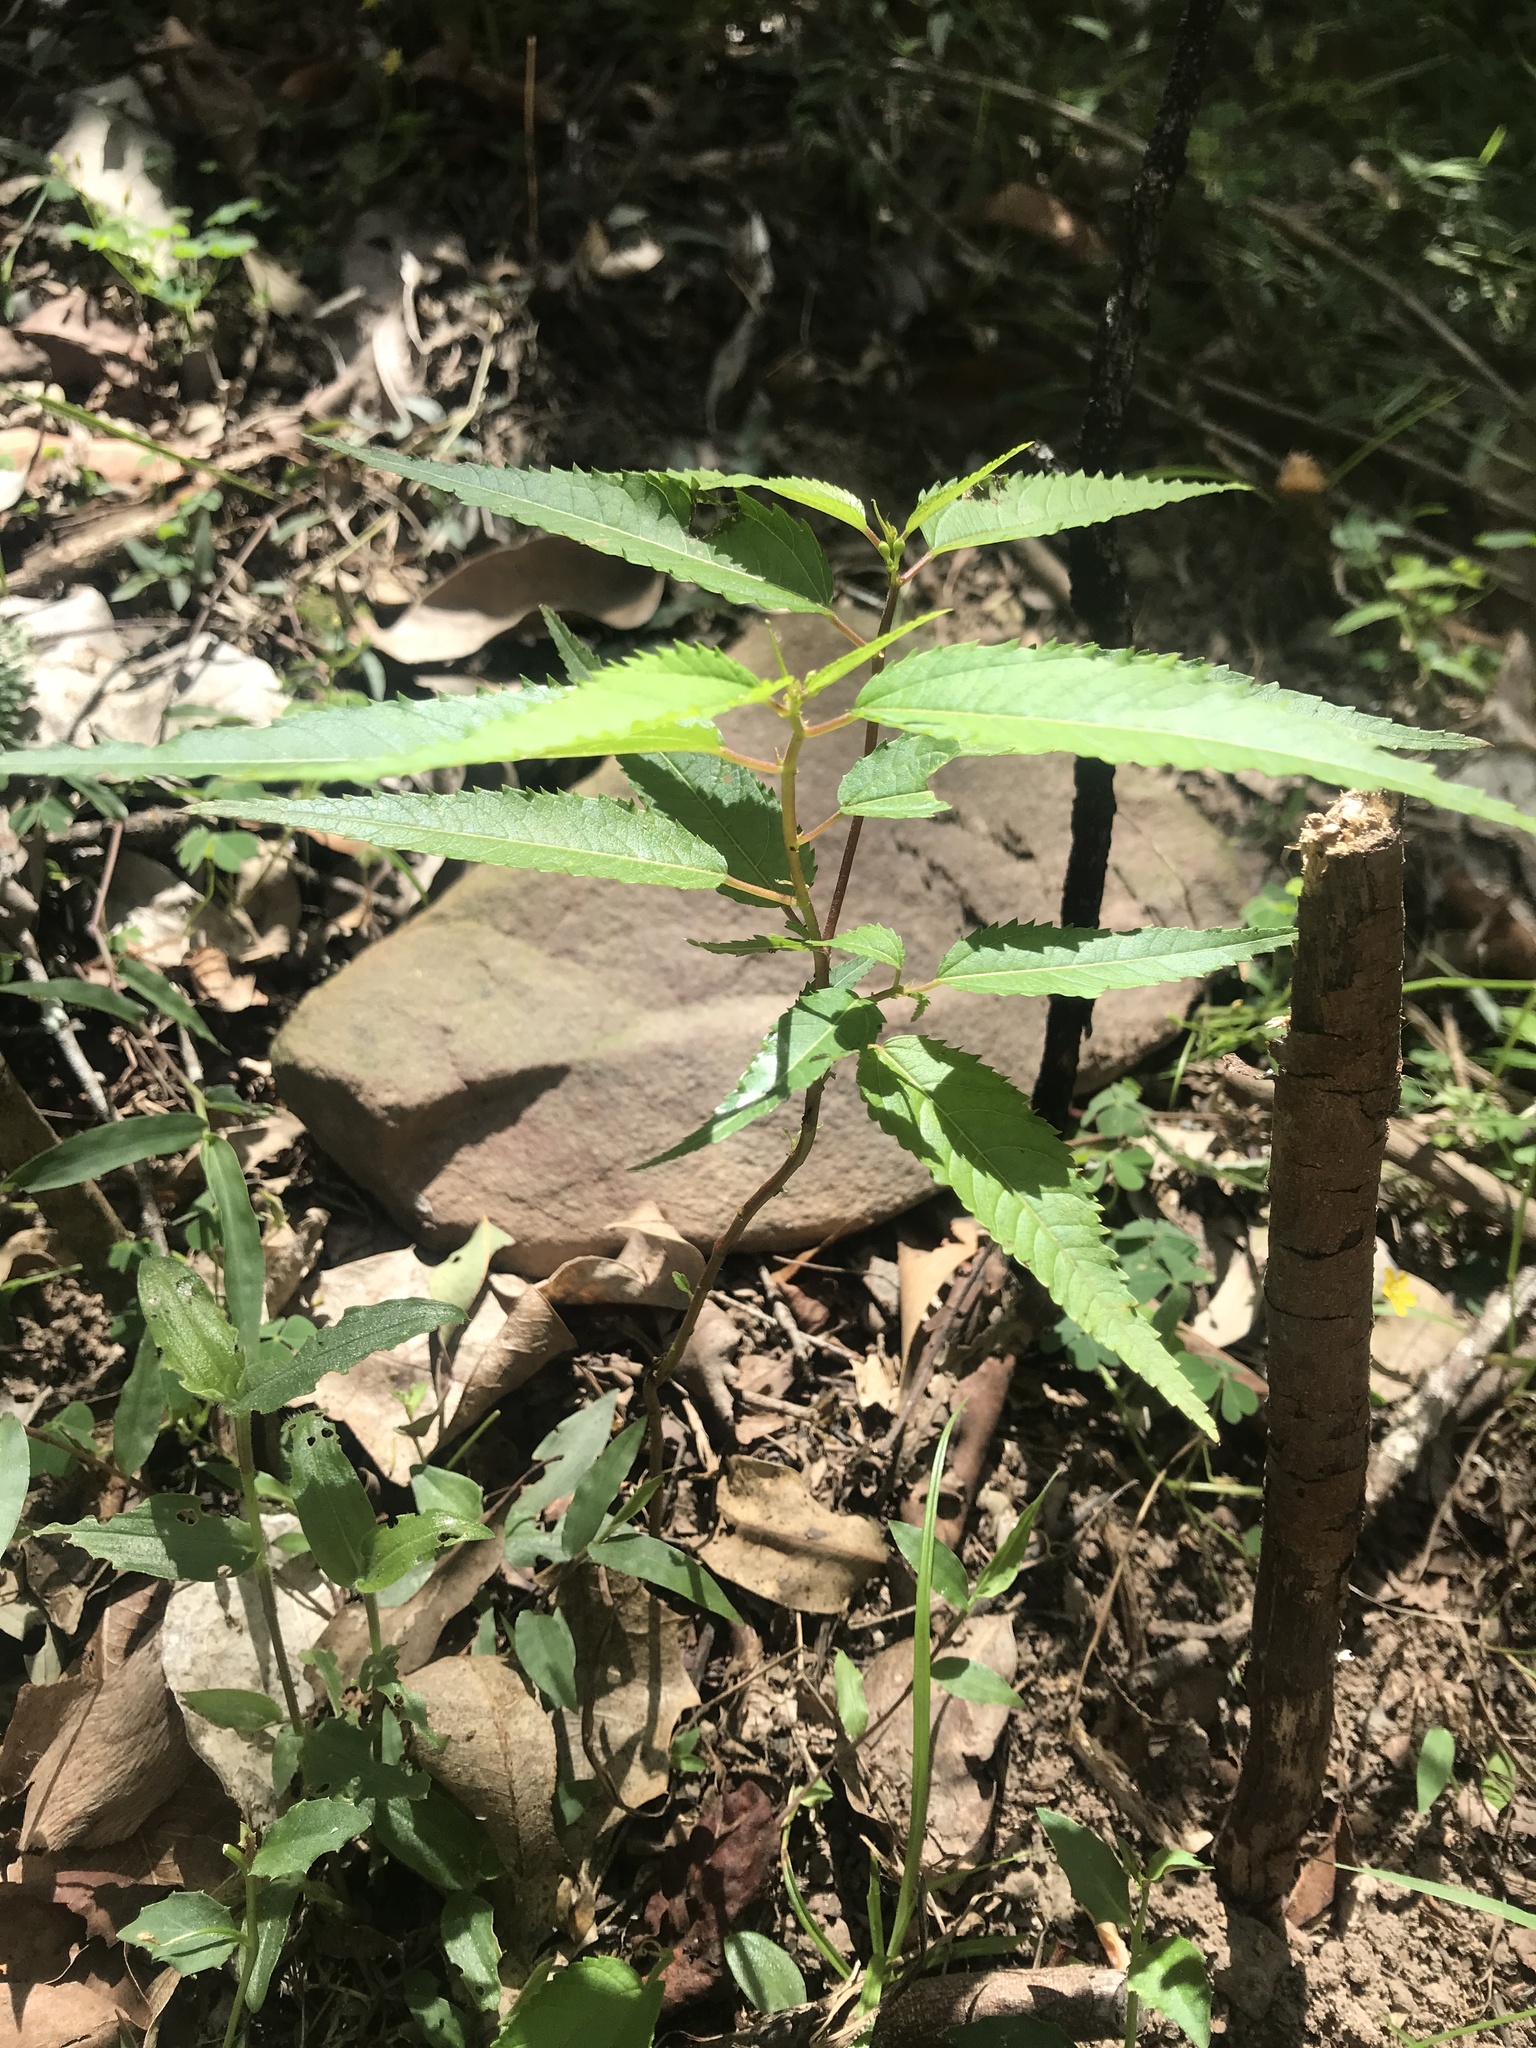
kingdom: Plantae
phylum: Tracheophyta
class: Magnoliopsida
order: Malvales
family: Malvaceae
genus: Corchorus
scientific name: Corchorus cunninghamii
